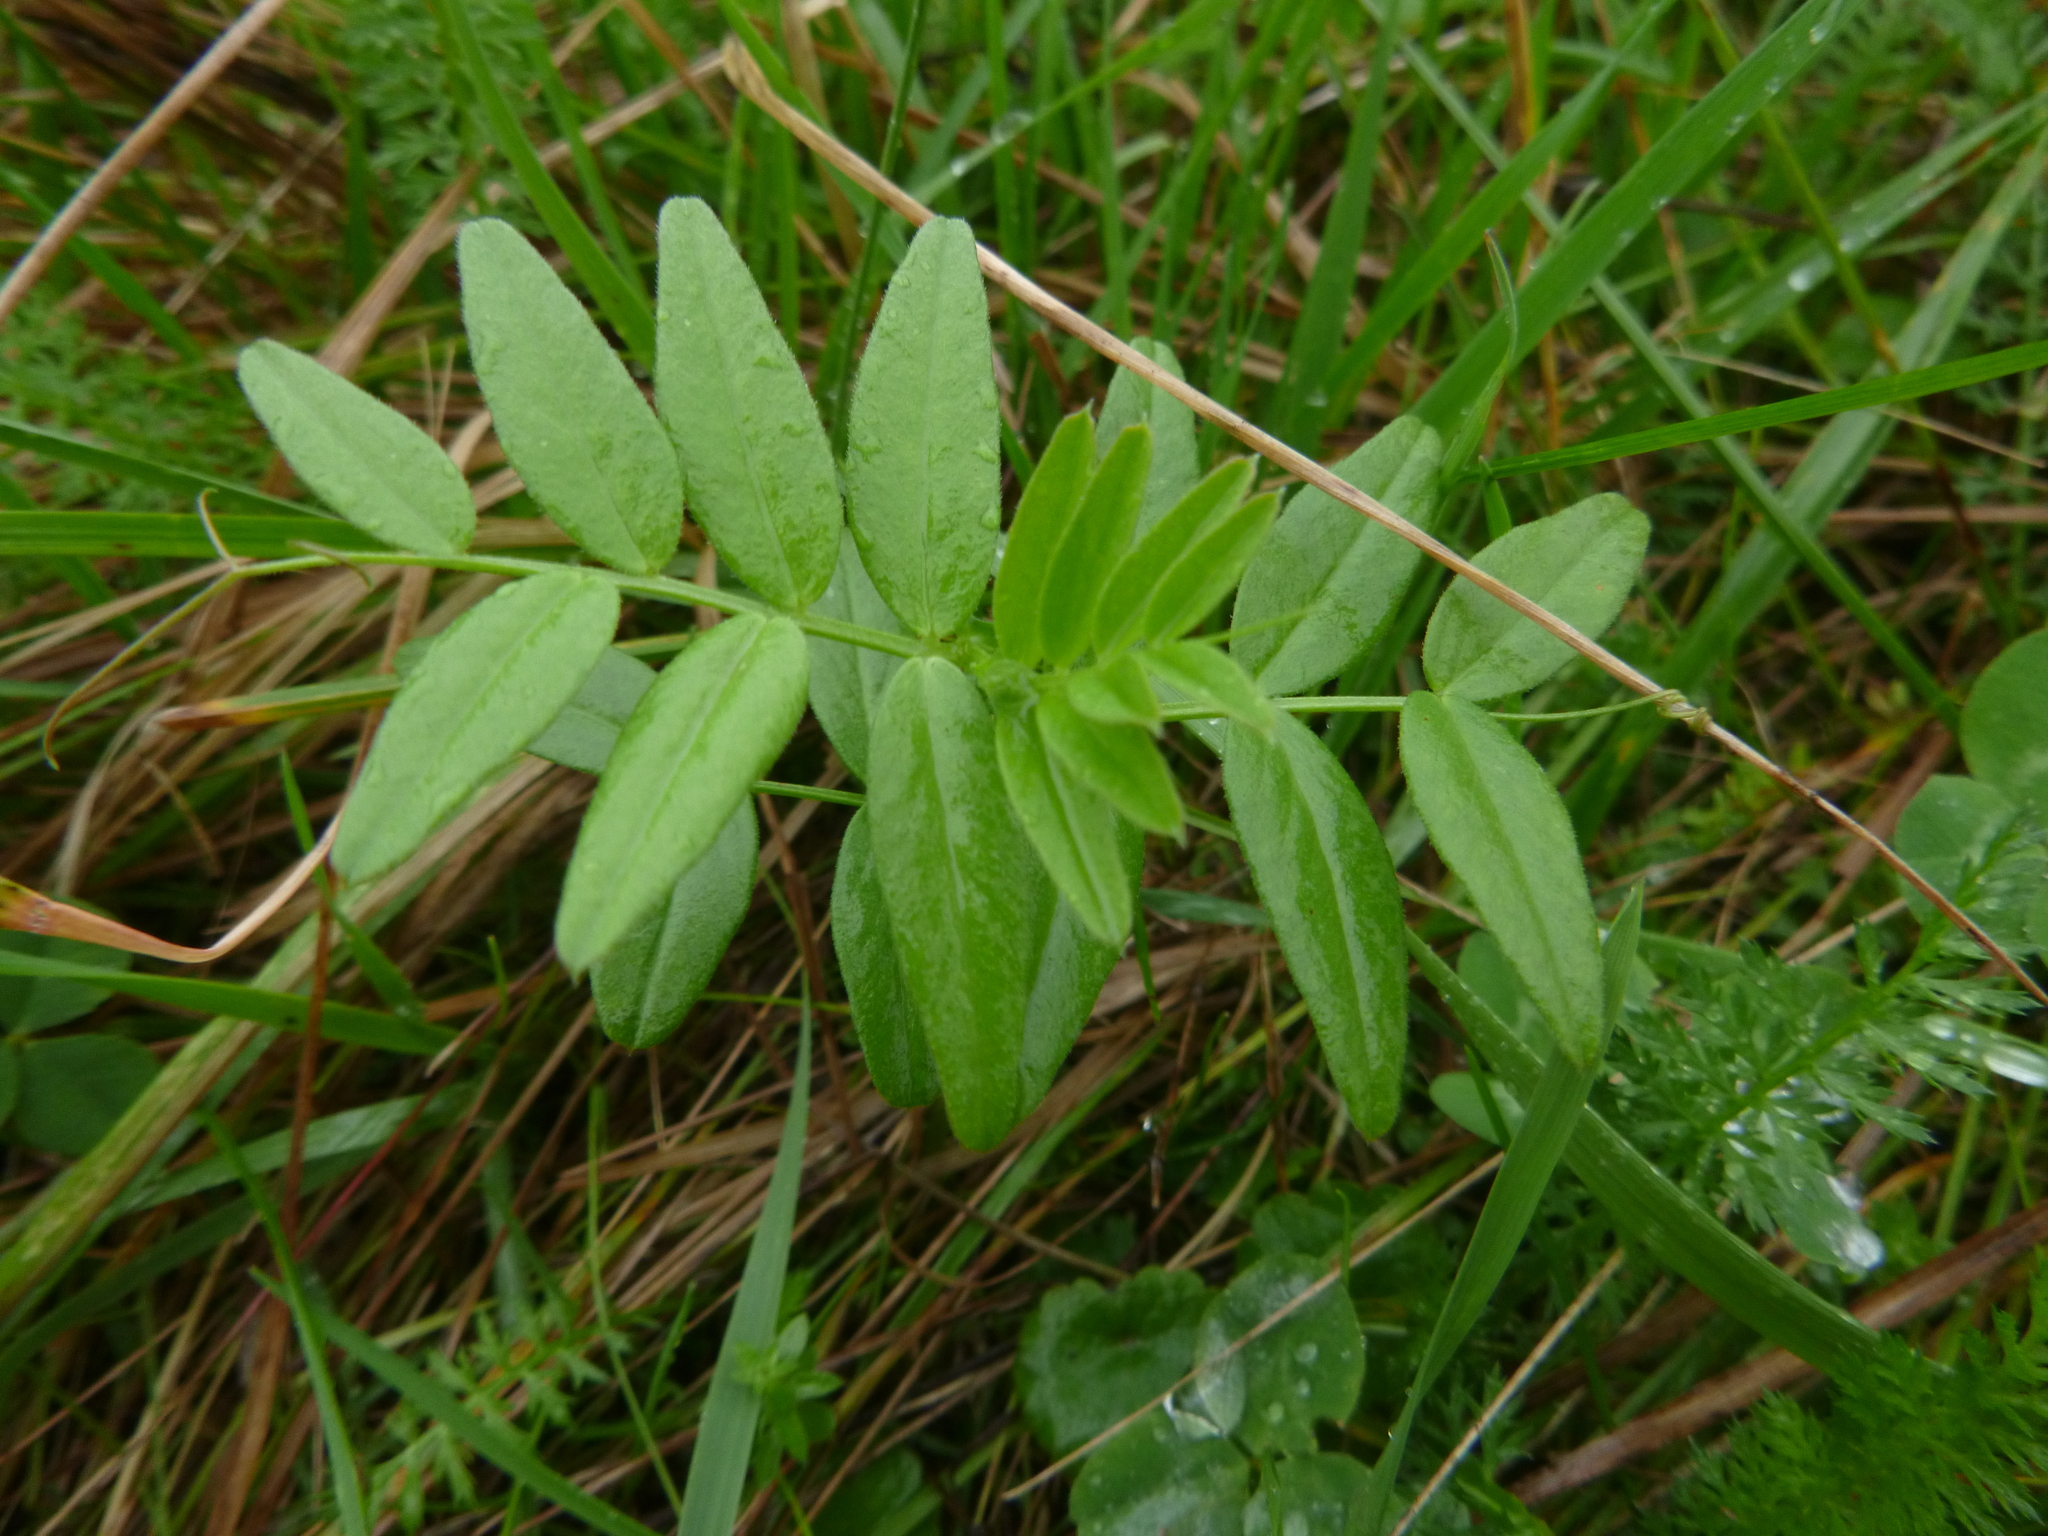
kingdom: Plantae
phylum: Tracheophyta
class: Magnoliopsida
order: Fabales
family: Fabaceae
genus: Vicia
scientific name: Vicia sepium
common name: Bush vetch
